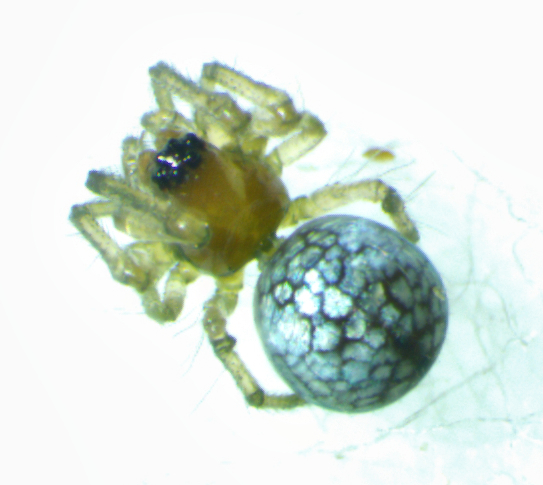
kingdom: Animalia
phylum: Arthropoda
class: Arachnida
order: Araneae
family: Tetragnathidae
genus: Leucauge
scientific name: Leucauge venusta
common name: Longjawed orb weavers
